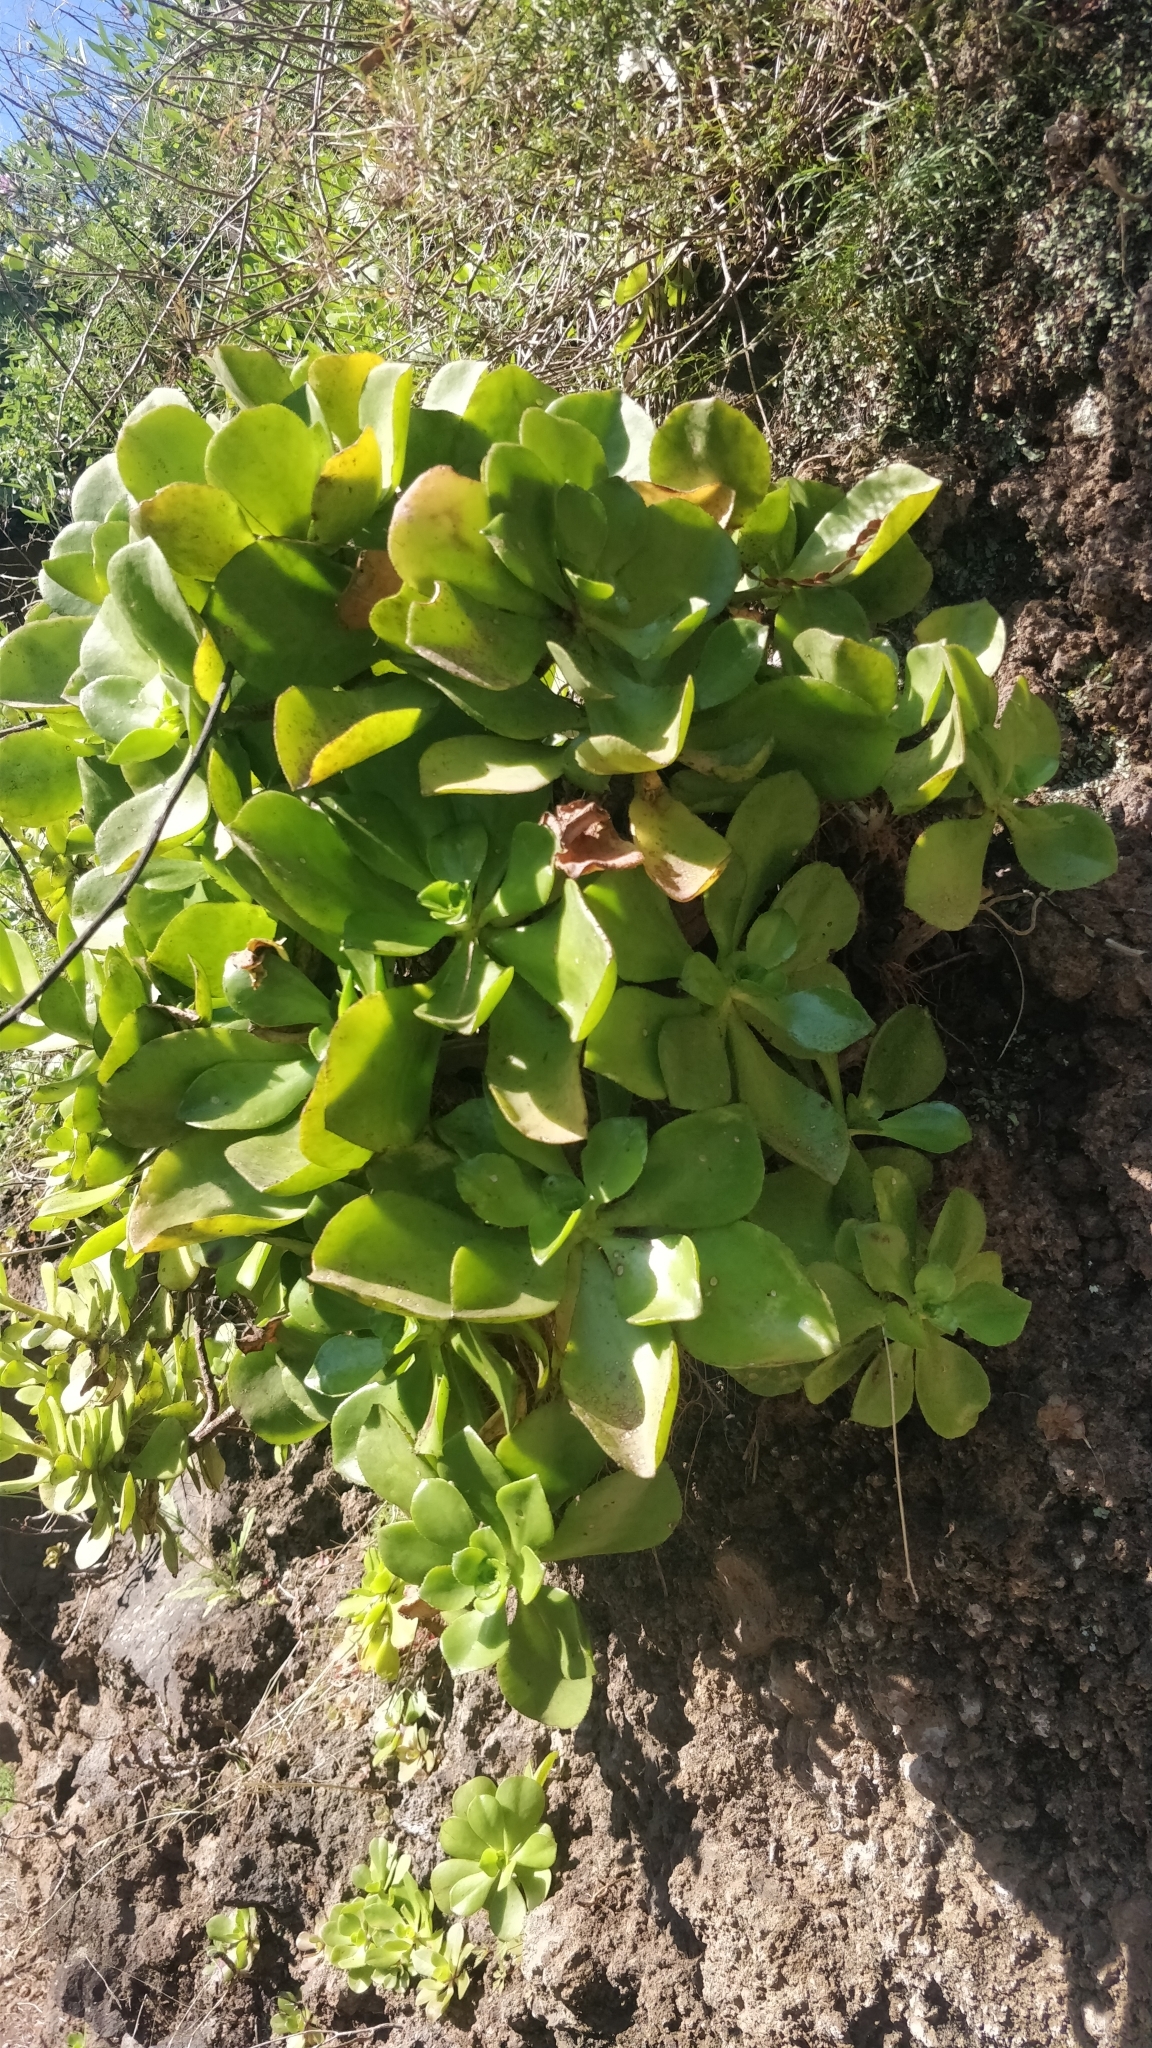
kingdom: Plantae
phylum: Tracheophyta
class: Magnoliopsida
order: Saxifragales
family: Crassulaceae
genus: Aeonium
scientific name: Aeonium glutinosum
